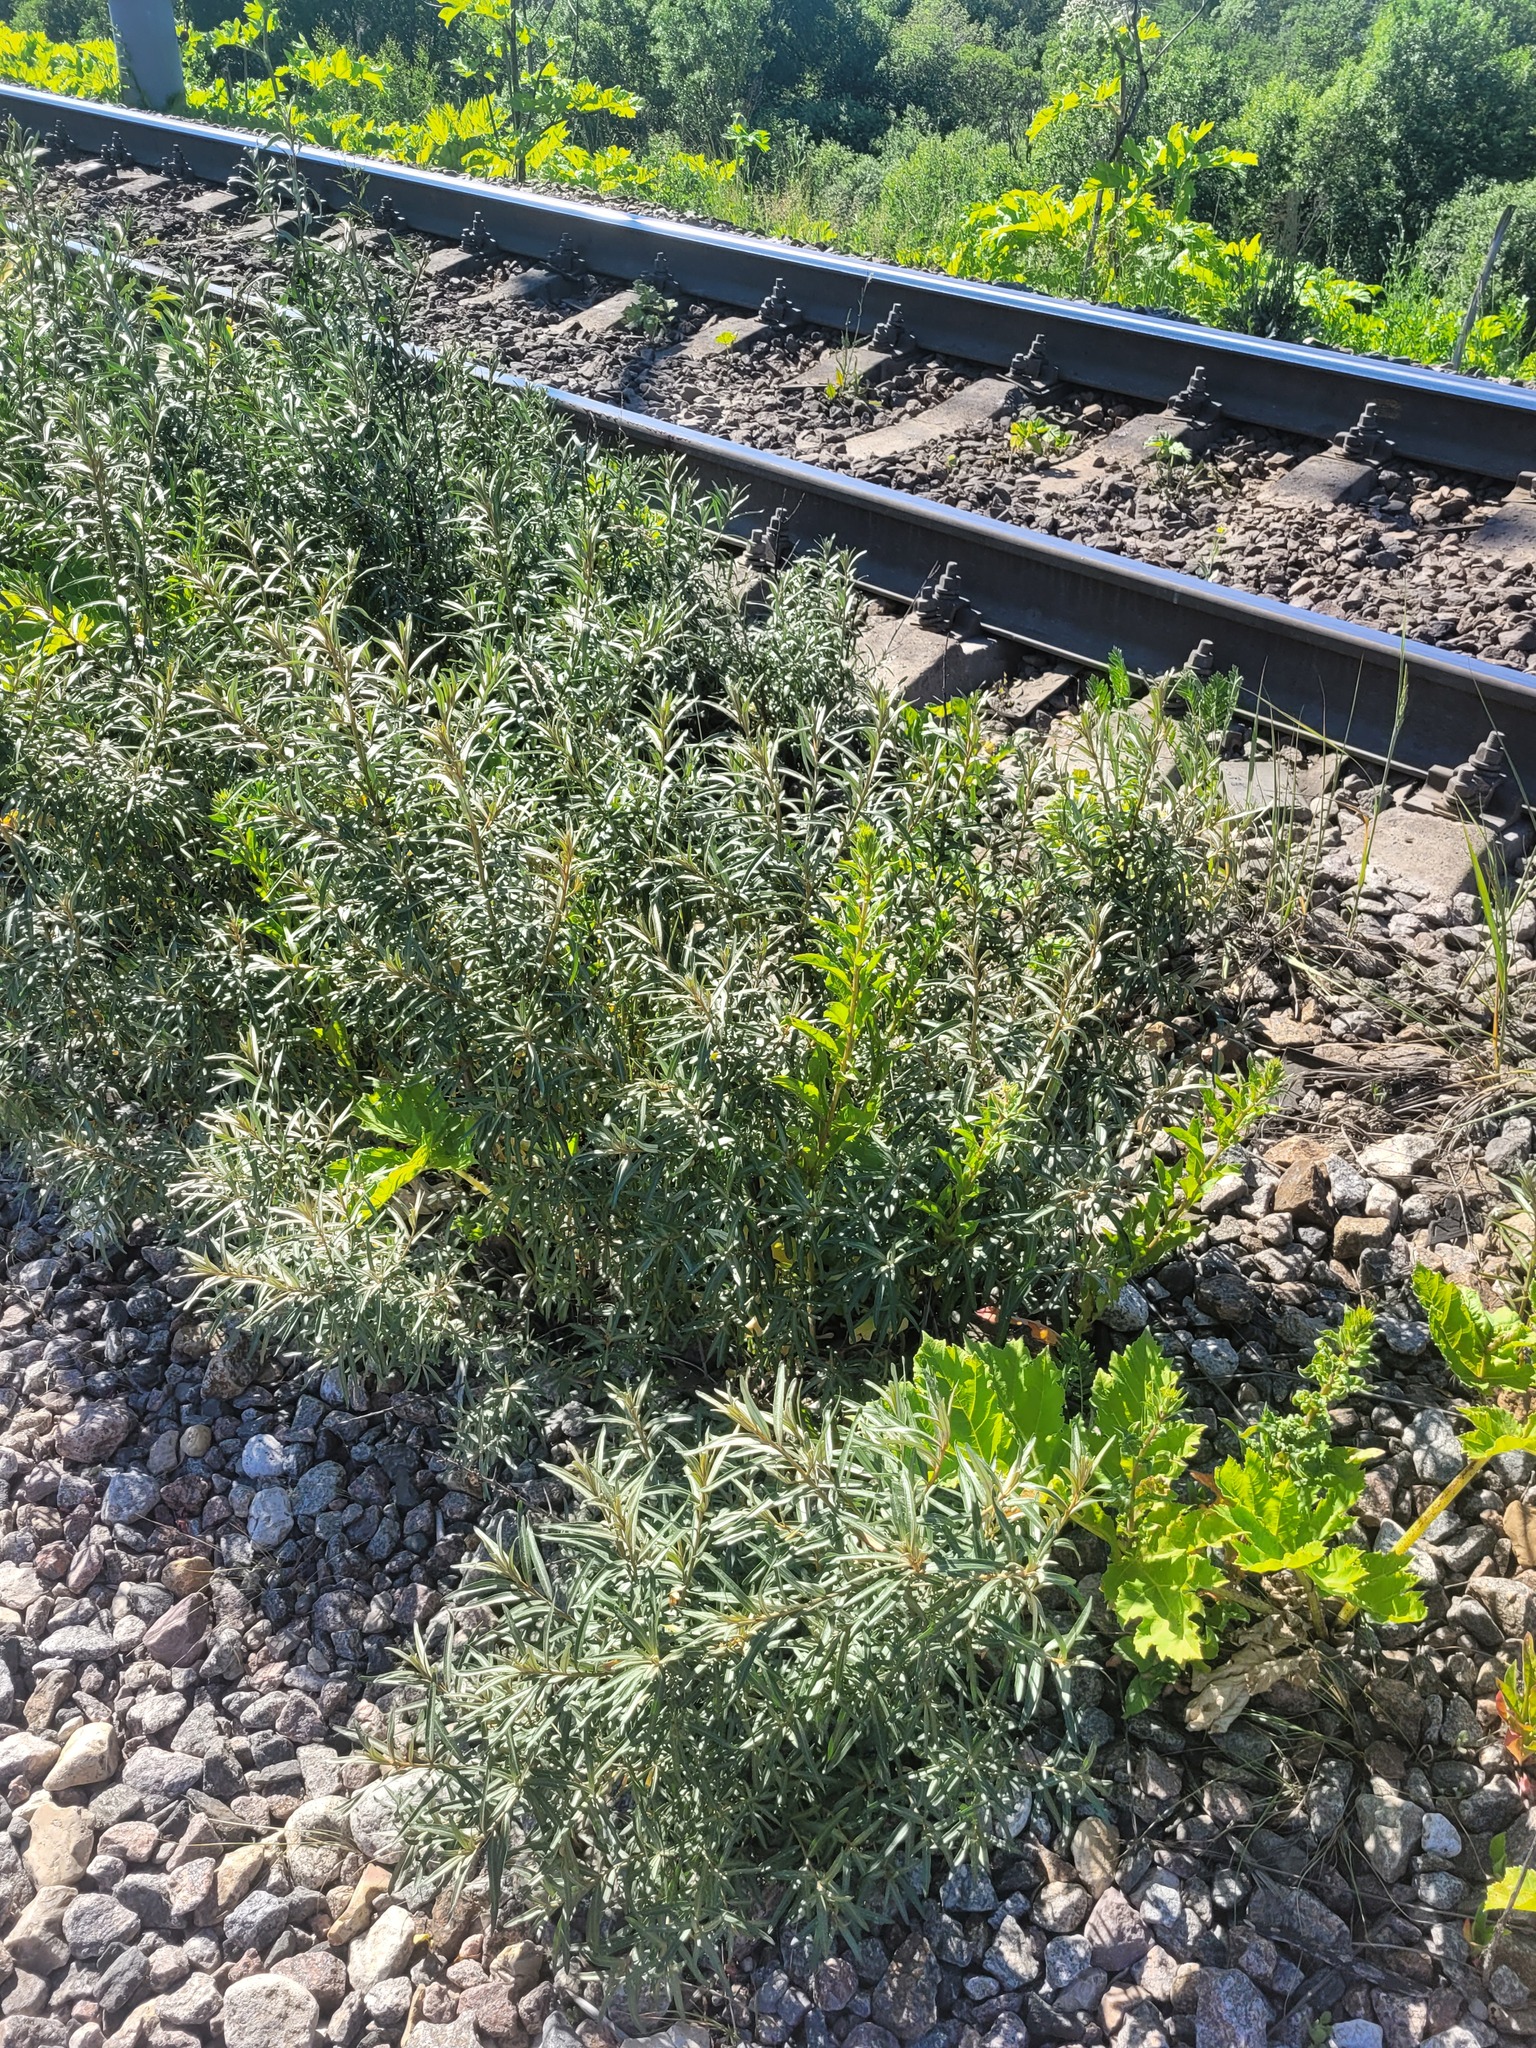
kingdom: Plantae
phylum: Tracheophyta
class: Magnoliopsida
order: Rosales
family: Elaeagnaceae
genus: Hippophae
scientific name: Hippophae rhamnoides
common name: Sea-buckthorn
